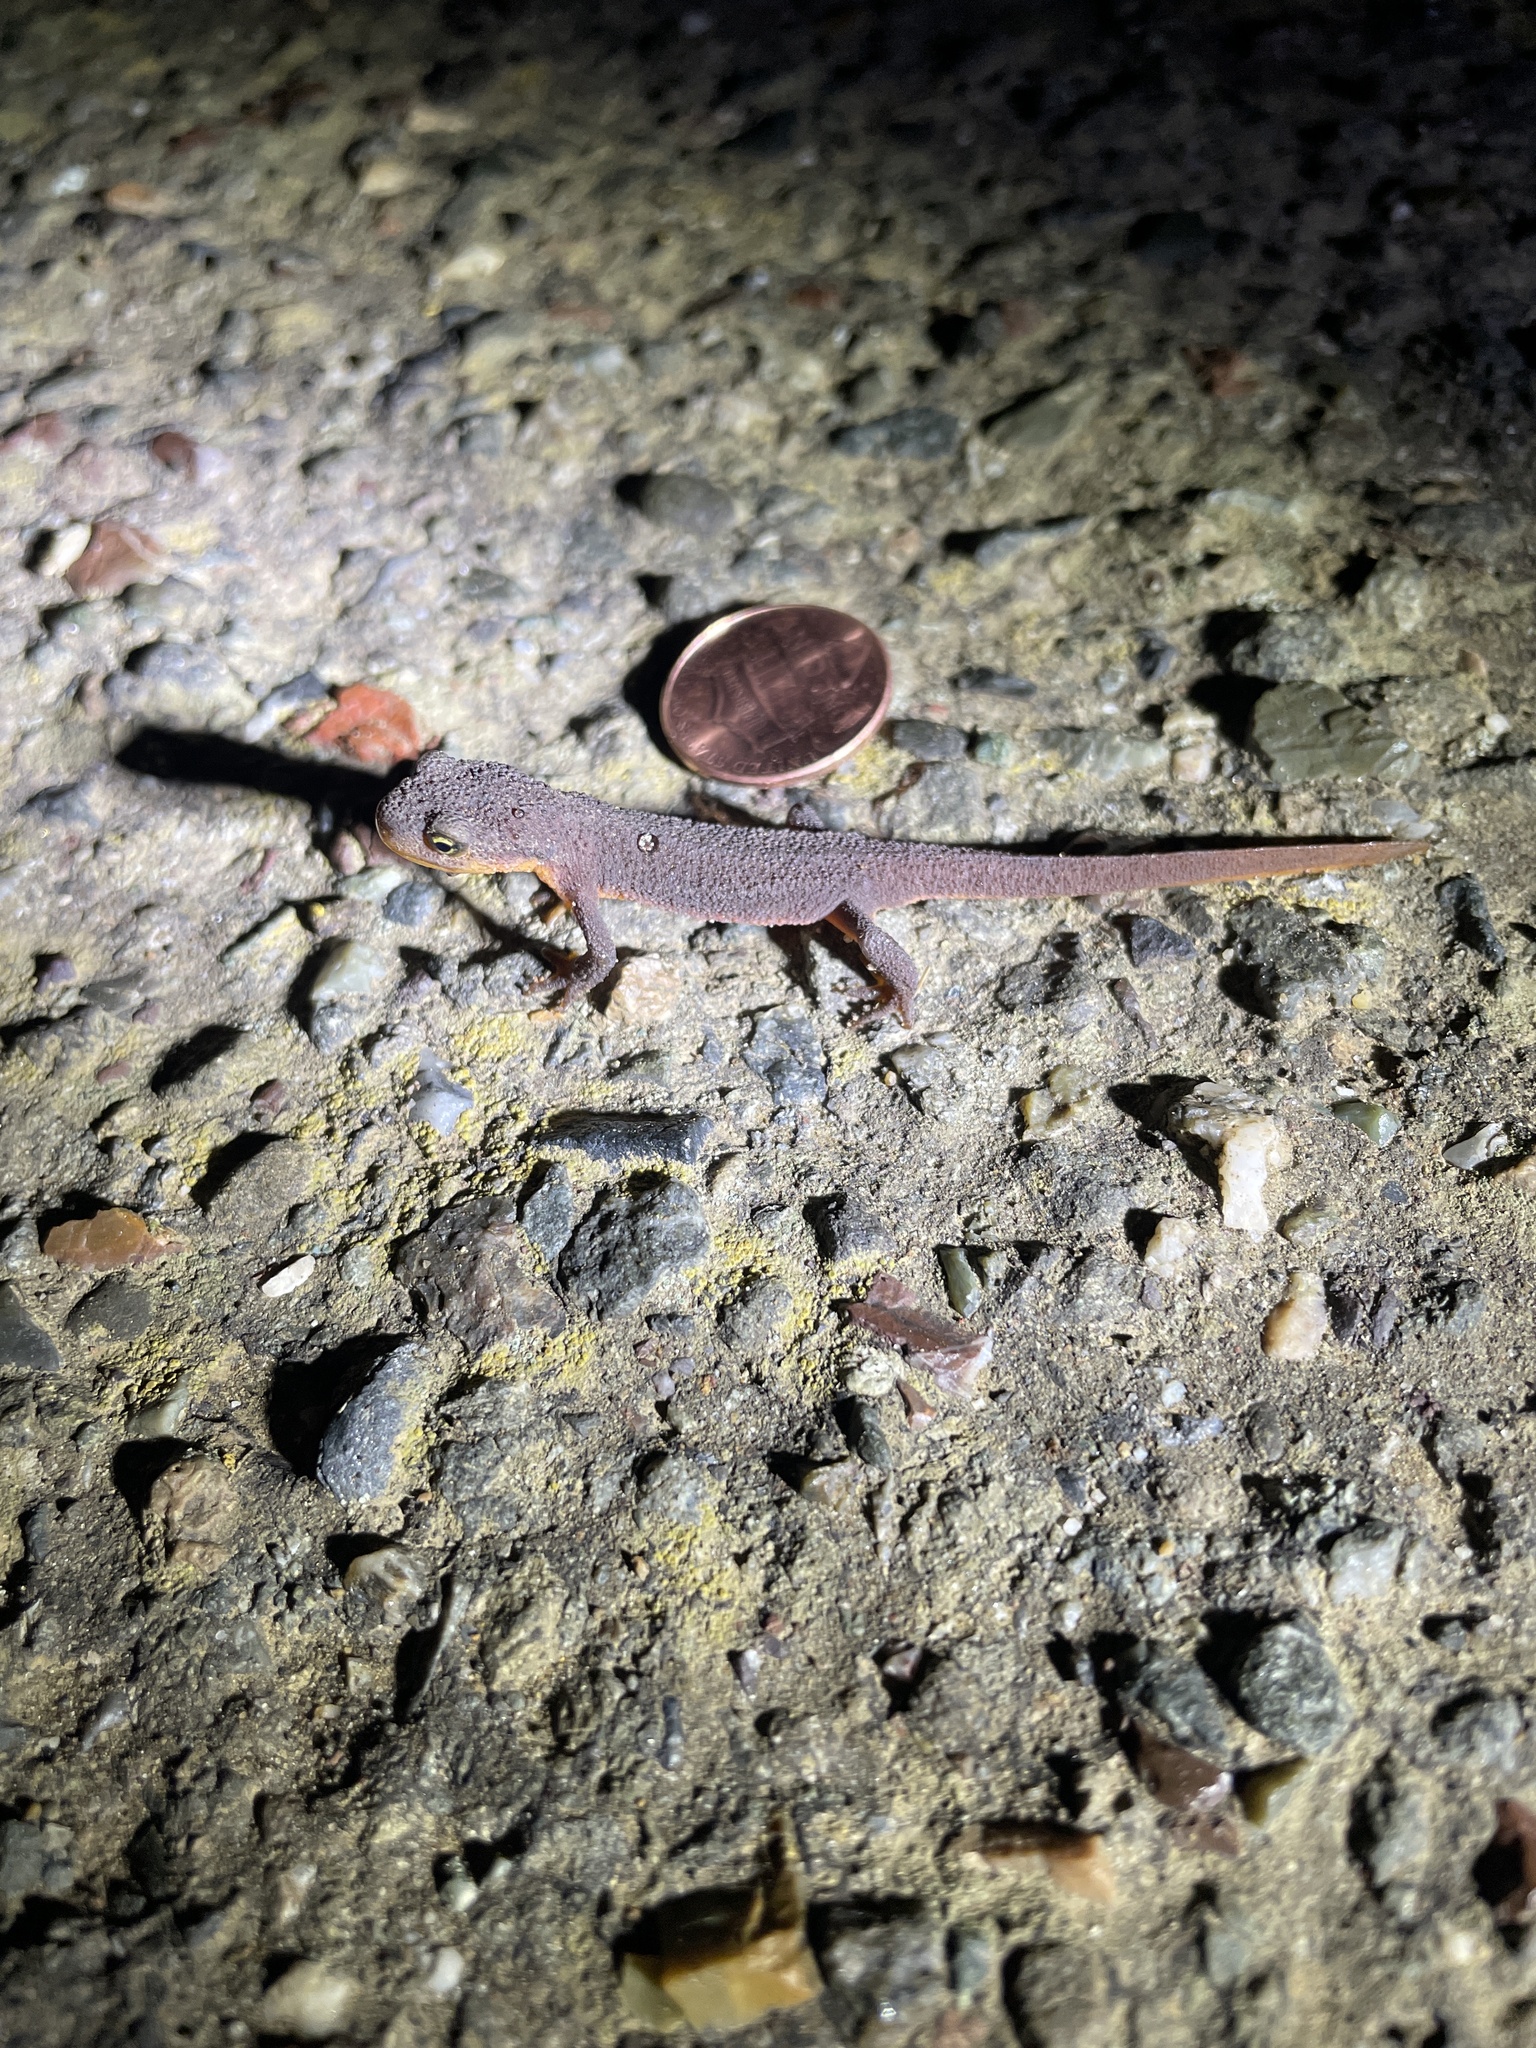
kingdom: Animalia
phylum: Chordata
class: Amphibia
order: Caudata
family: Salamandridae
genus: Taricha
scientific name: Taricha torosa
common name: California newt
